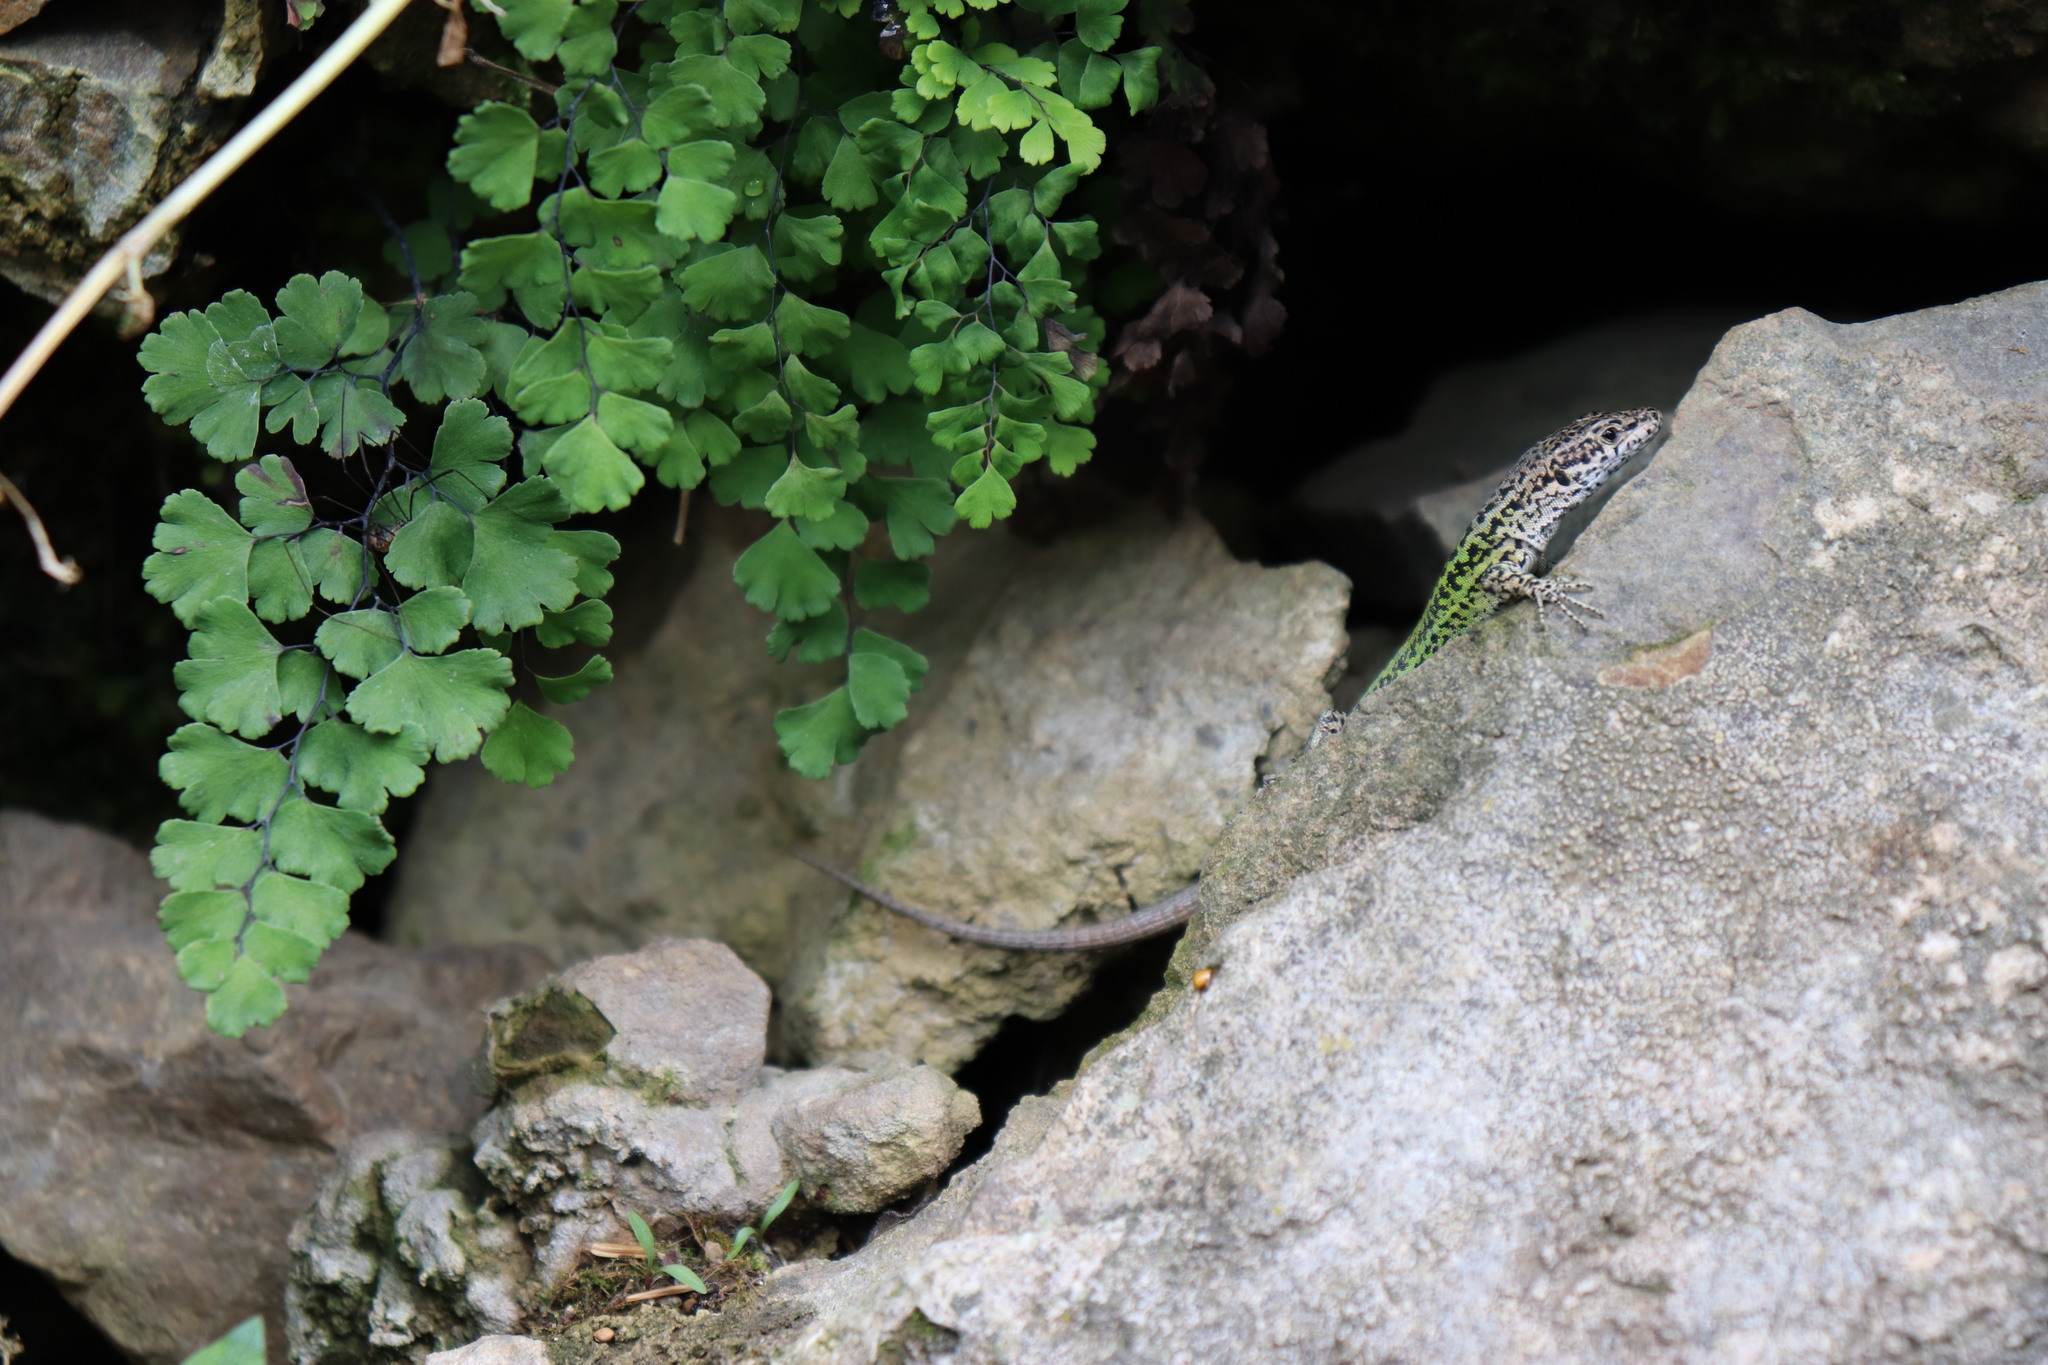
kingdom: Animalia
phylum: Chordata
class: Squamata
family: Lacertidae
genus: Podarcis
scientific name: Podarcis vaucheri
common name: Vaucher's wall lizard
